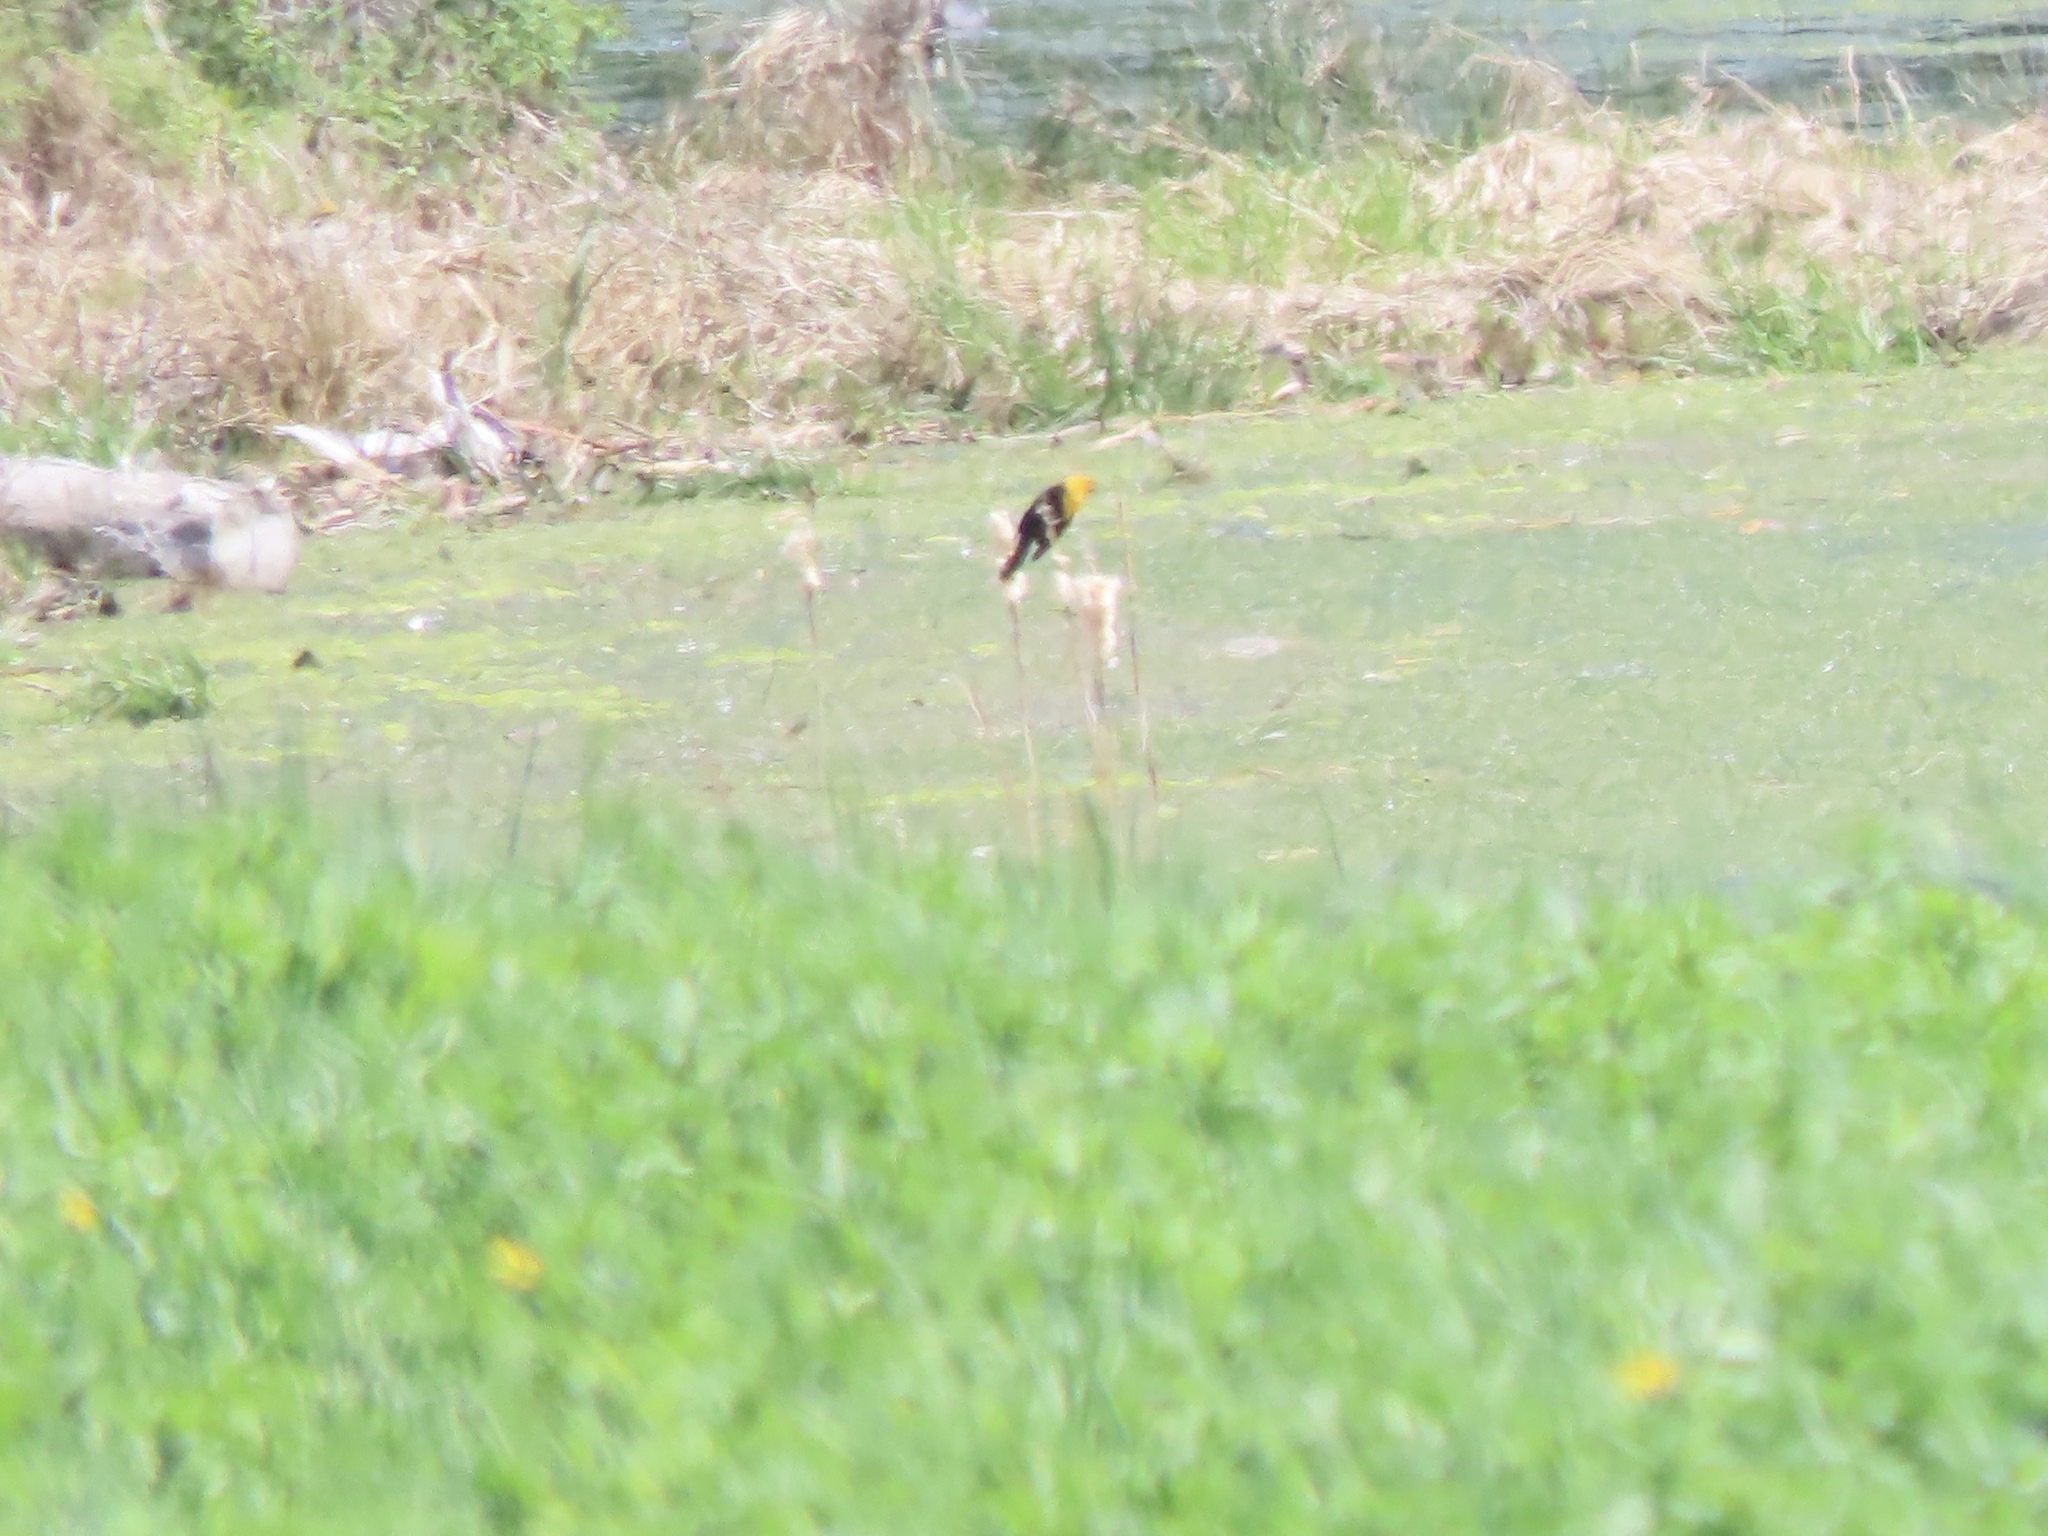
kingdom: Animalia
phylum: Chordata
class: Aves
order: Passeriformes
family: Icteridae
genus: Xanthocephalus
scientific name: Xanthocephalus xanthocephalus
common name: Yellow-headed blackbird
